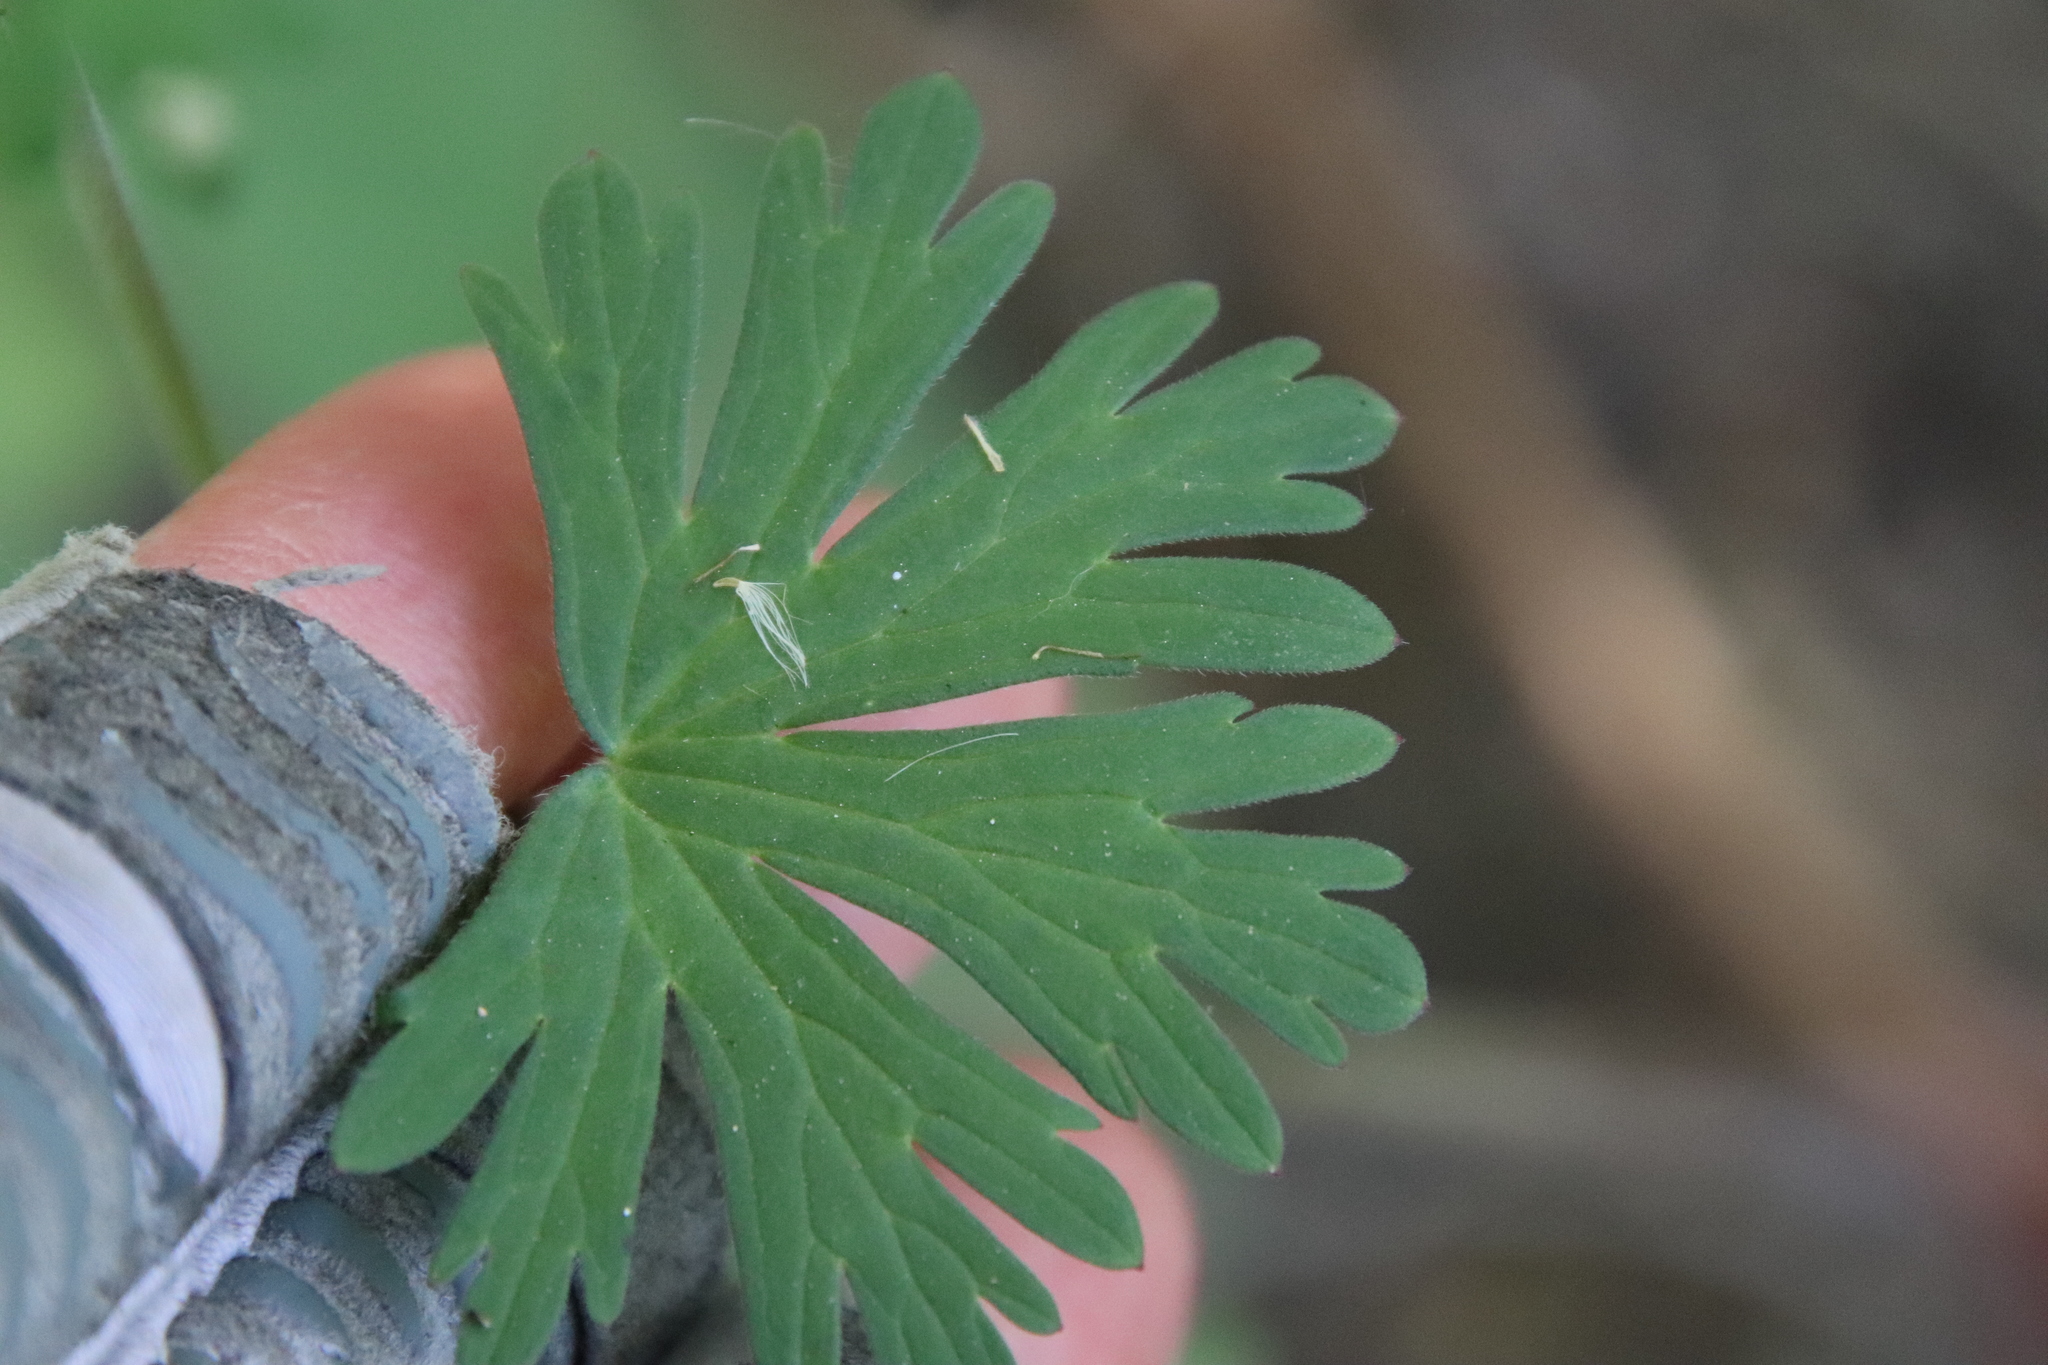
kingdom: Plantae
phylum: Tracheophyta
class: Magnoliopsida
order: Geraniales
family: Geraniaceae
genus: Geranium
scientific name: Geranium carolinianum
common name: Carolina crane's-bill
